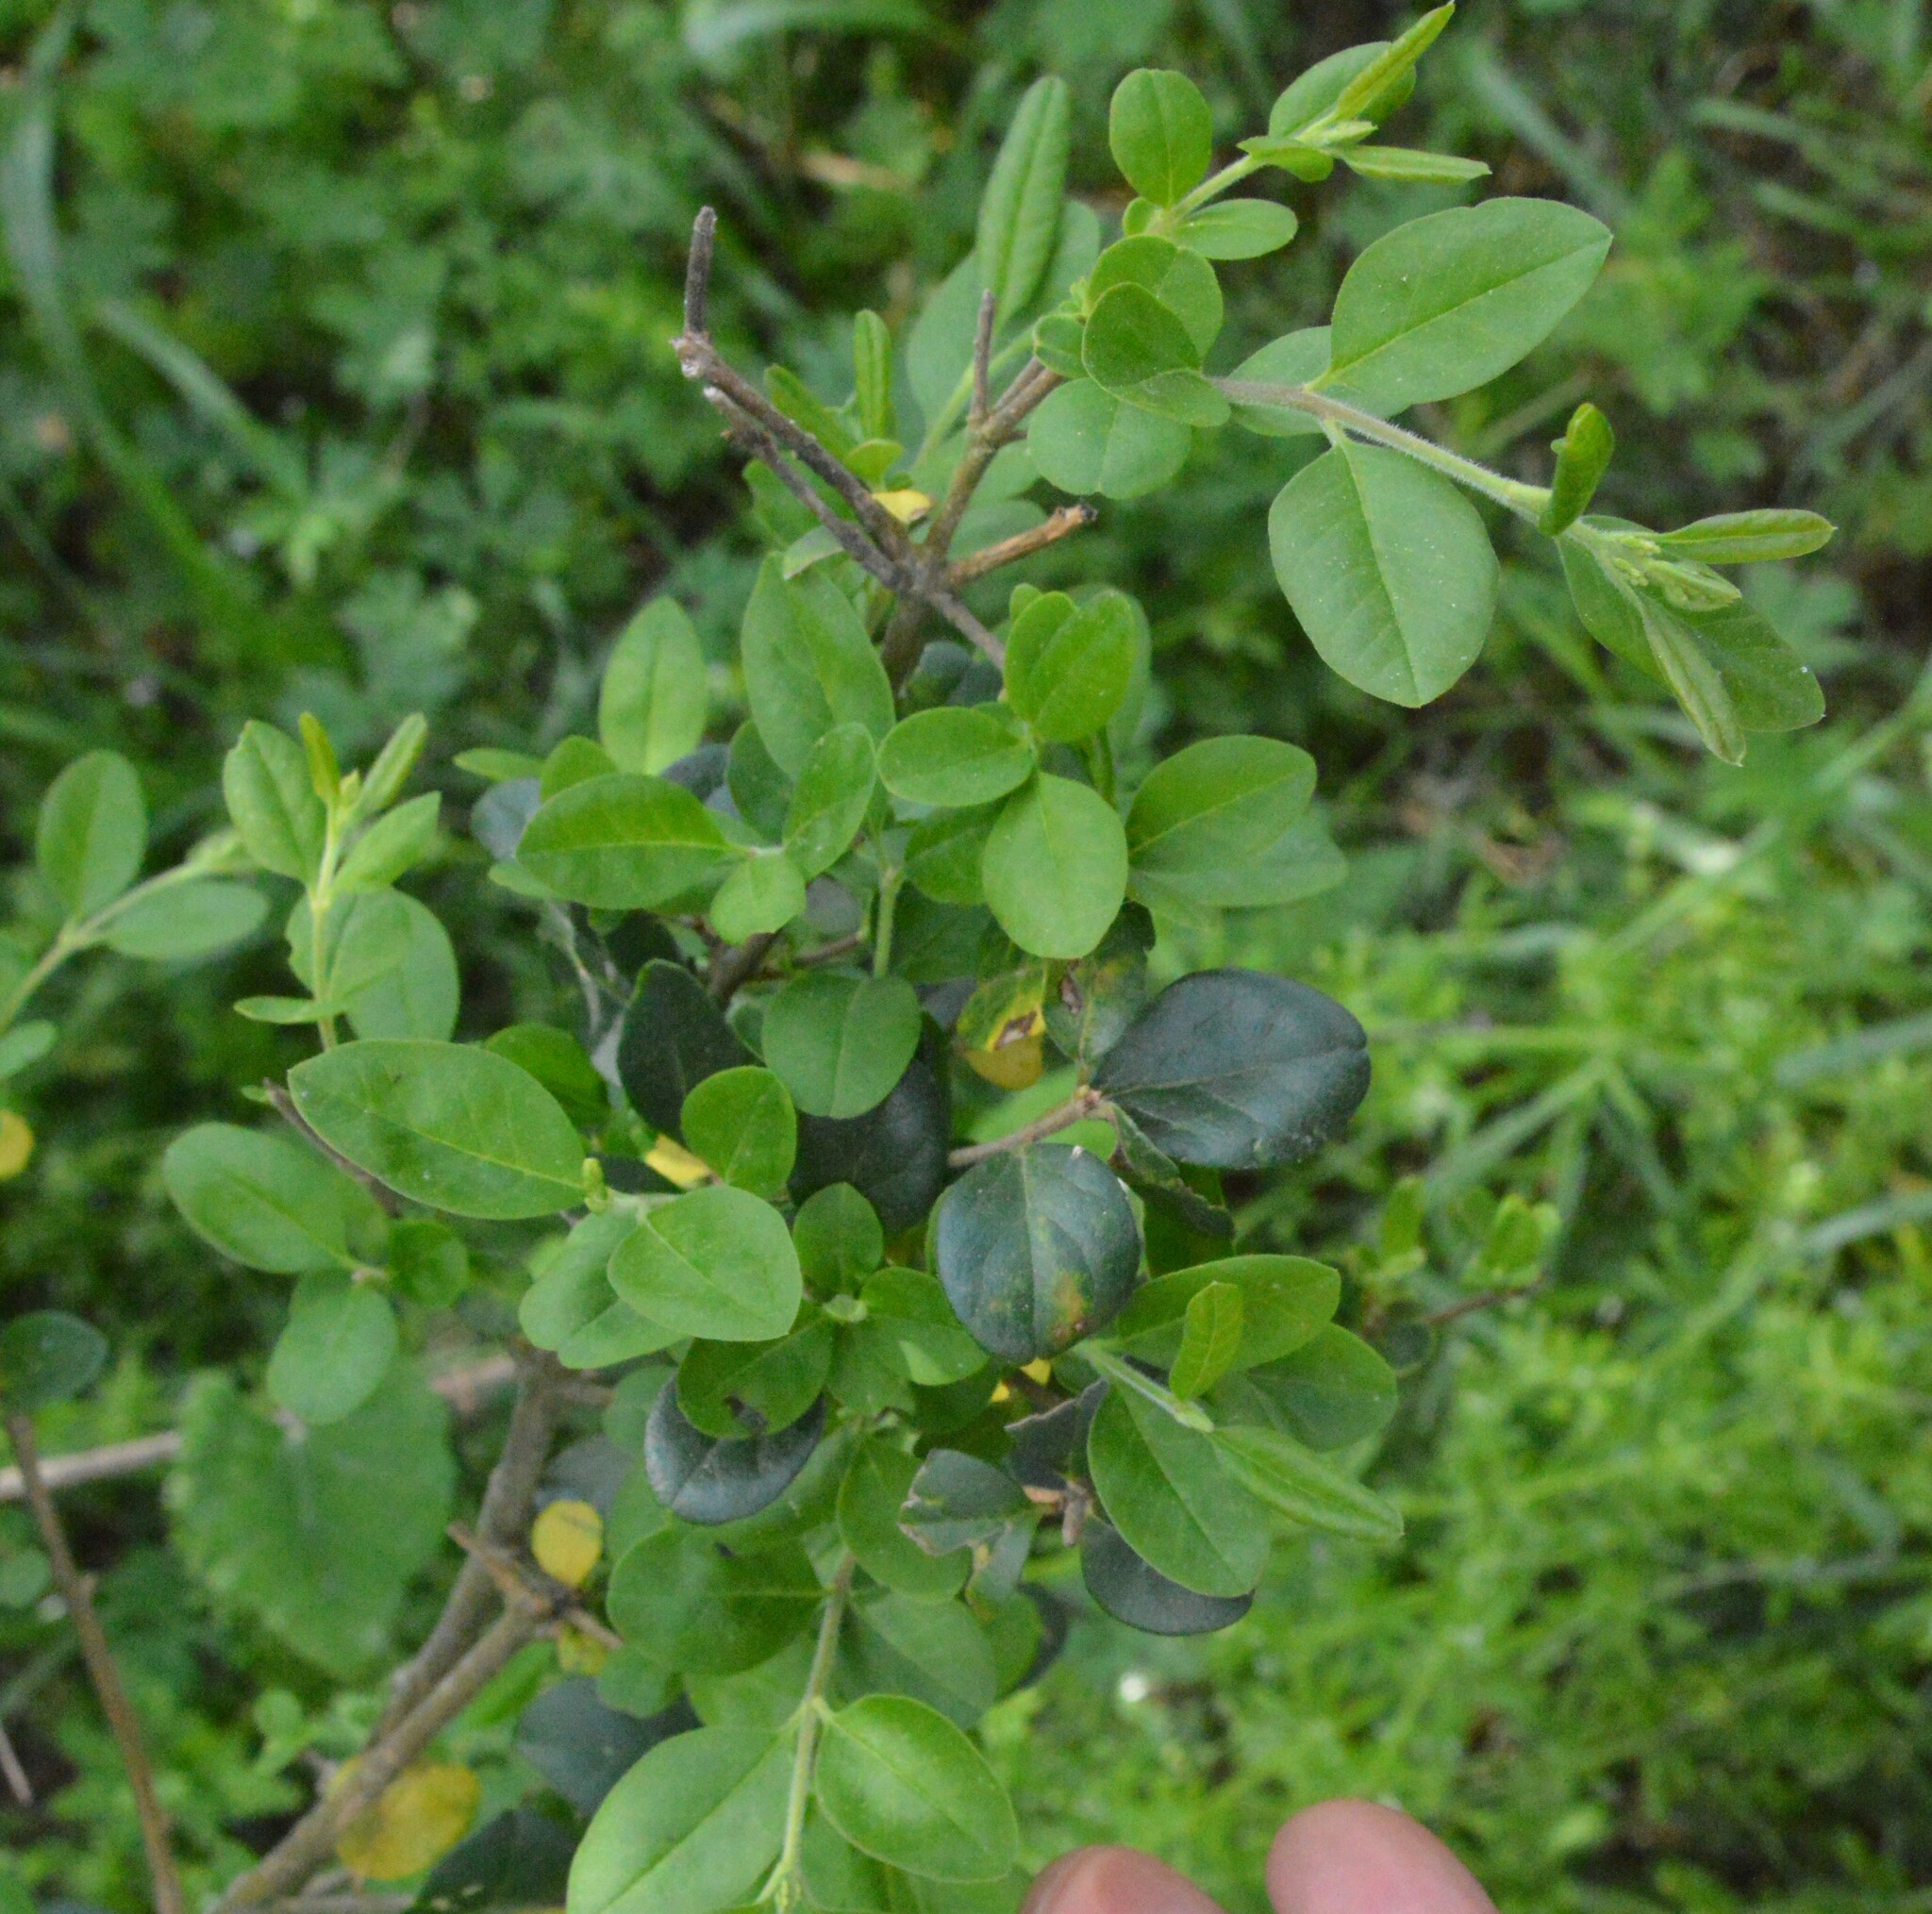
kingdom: Plantae
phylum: Tracheophyta
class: Magnoliopsida
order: Lamiales
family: Oleaceae
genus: Ligustrum
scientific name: Ligustrum sinense
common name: Chinese privet
